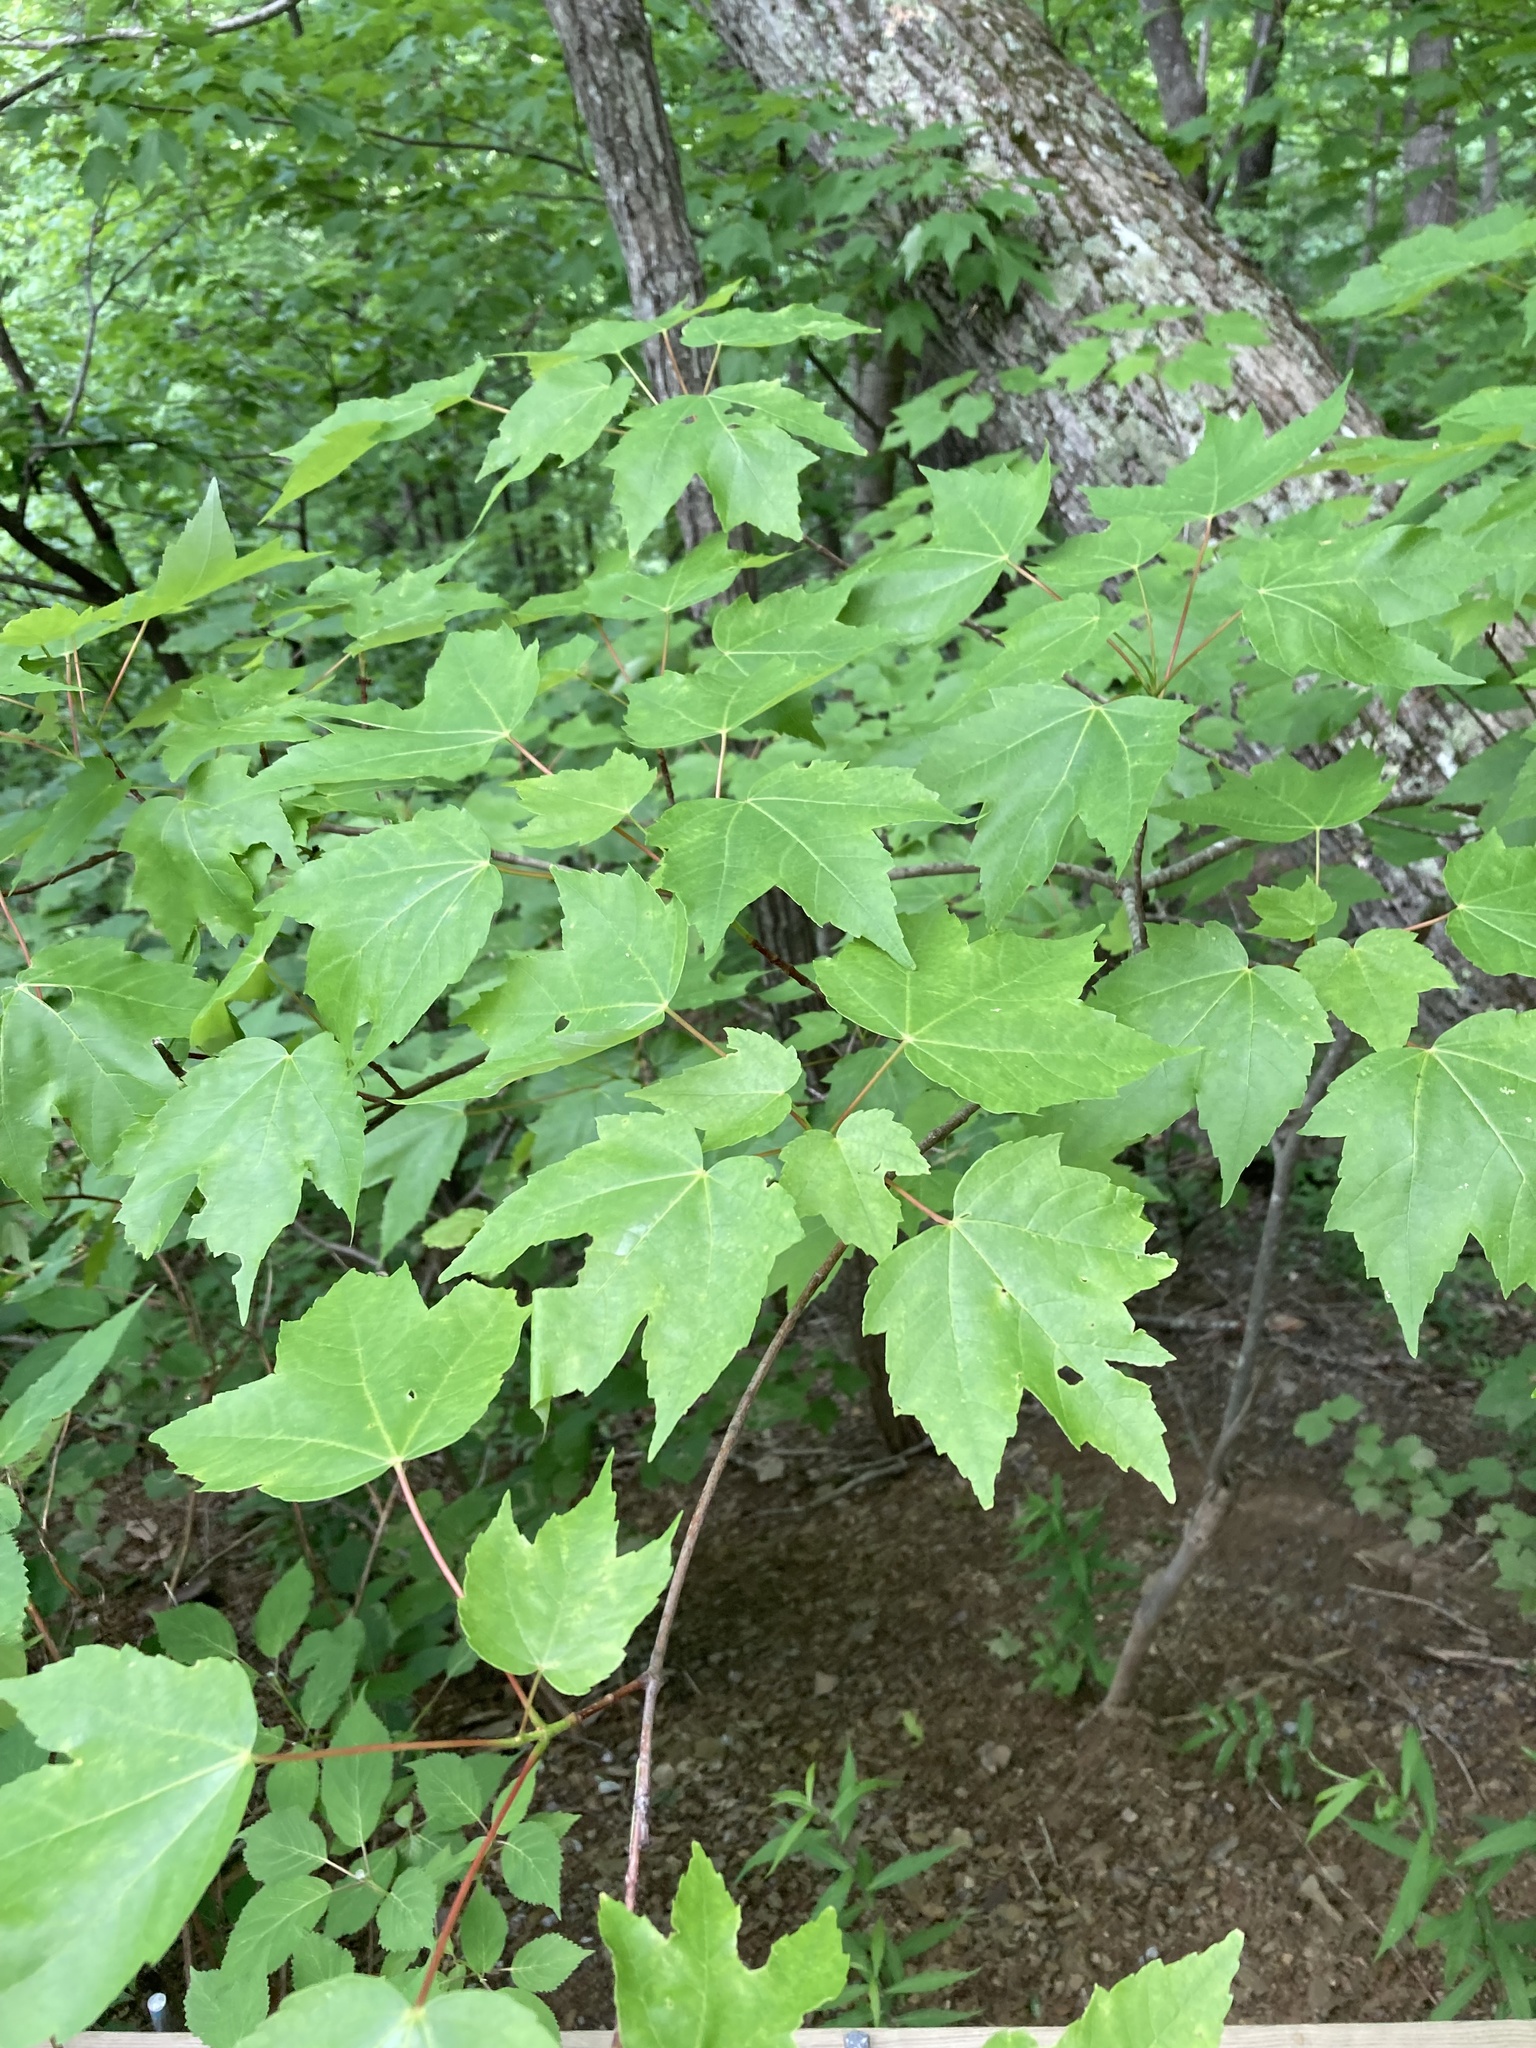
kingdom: Plantae
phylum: Tracheophyta
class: Magnoliopsida
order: Sapindales
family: Sapindaceae
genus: Acer
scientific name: Acer rubrum
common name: Red maple
